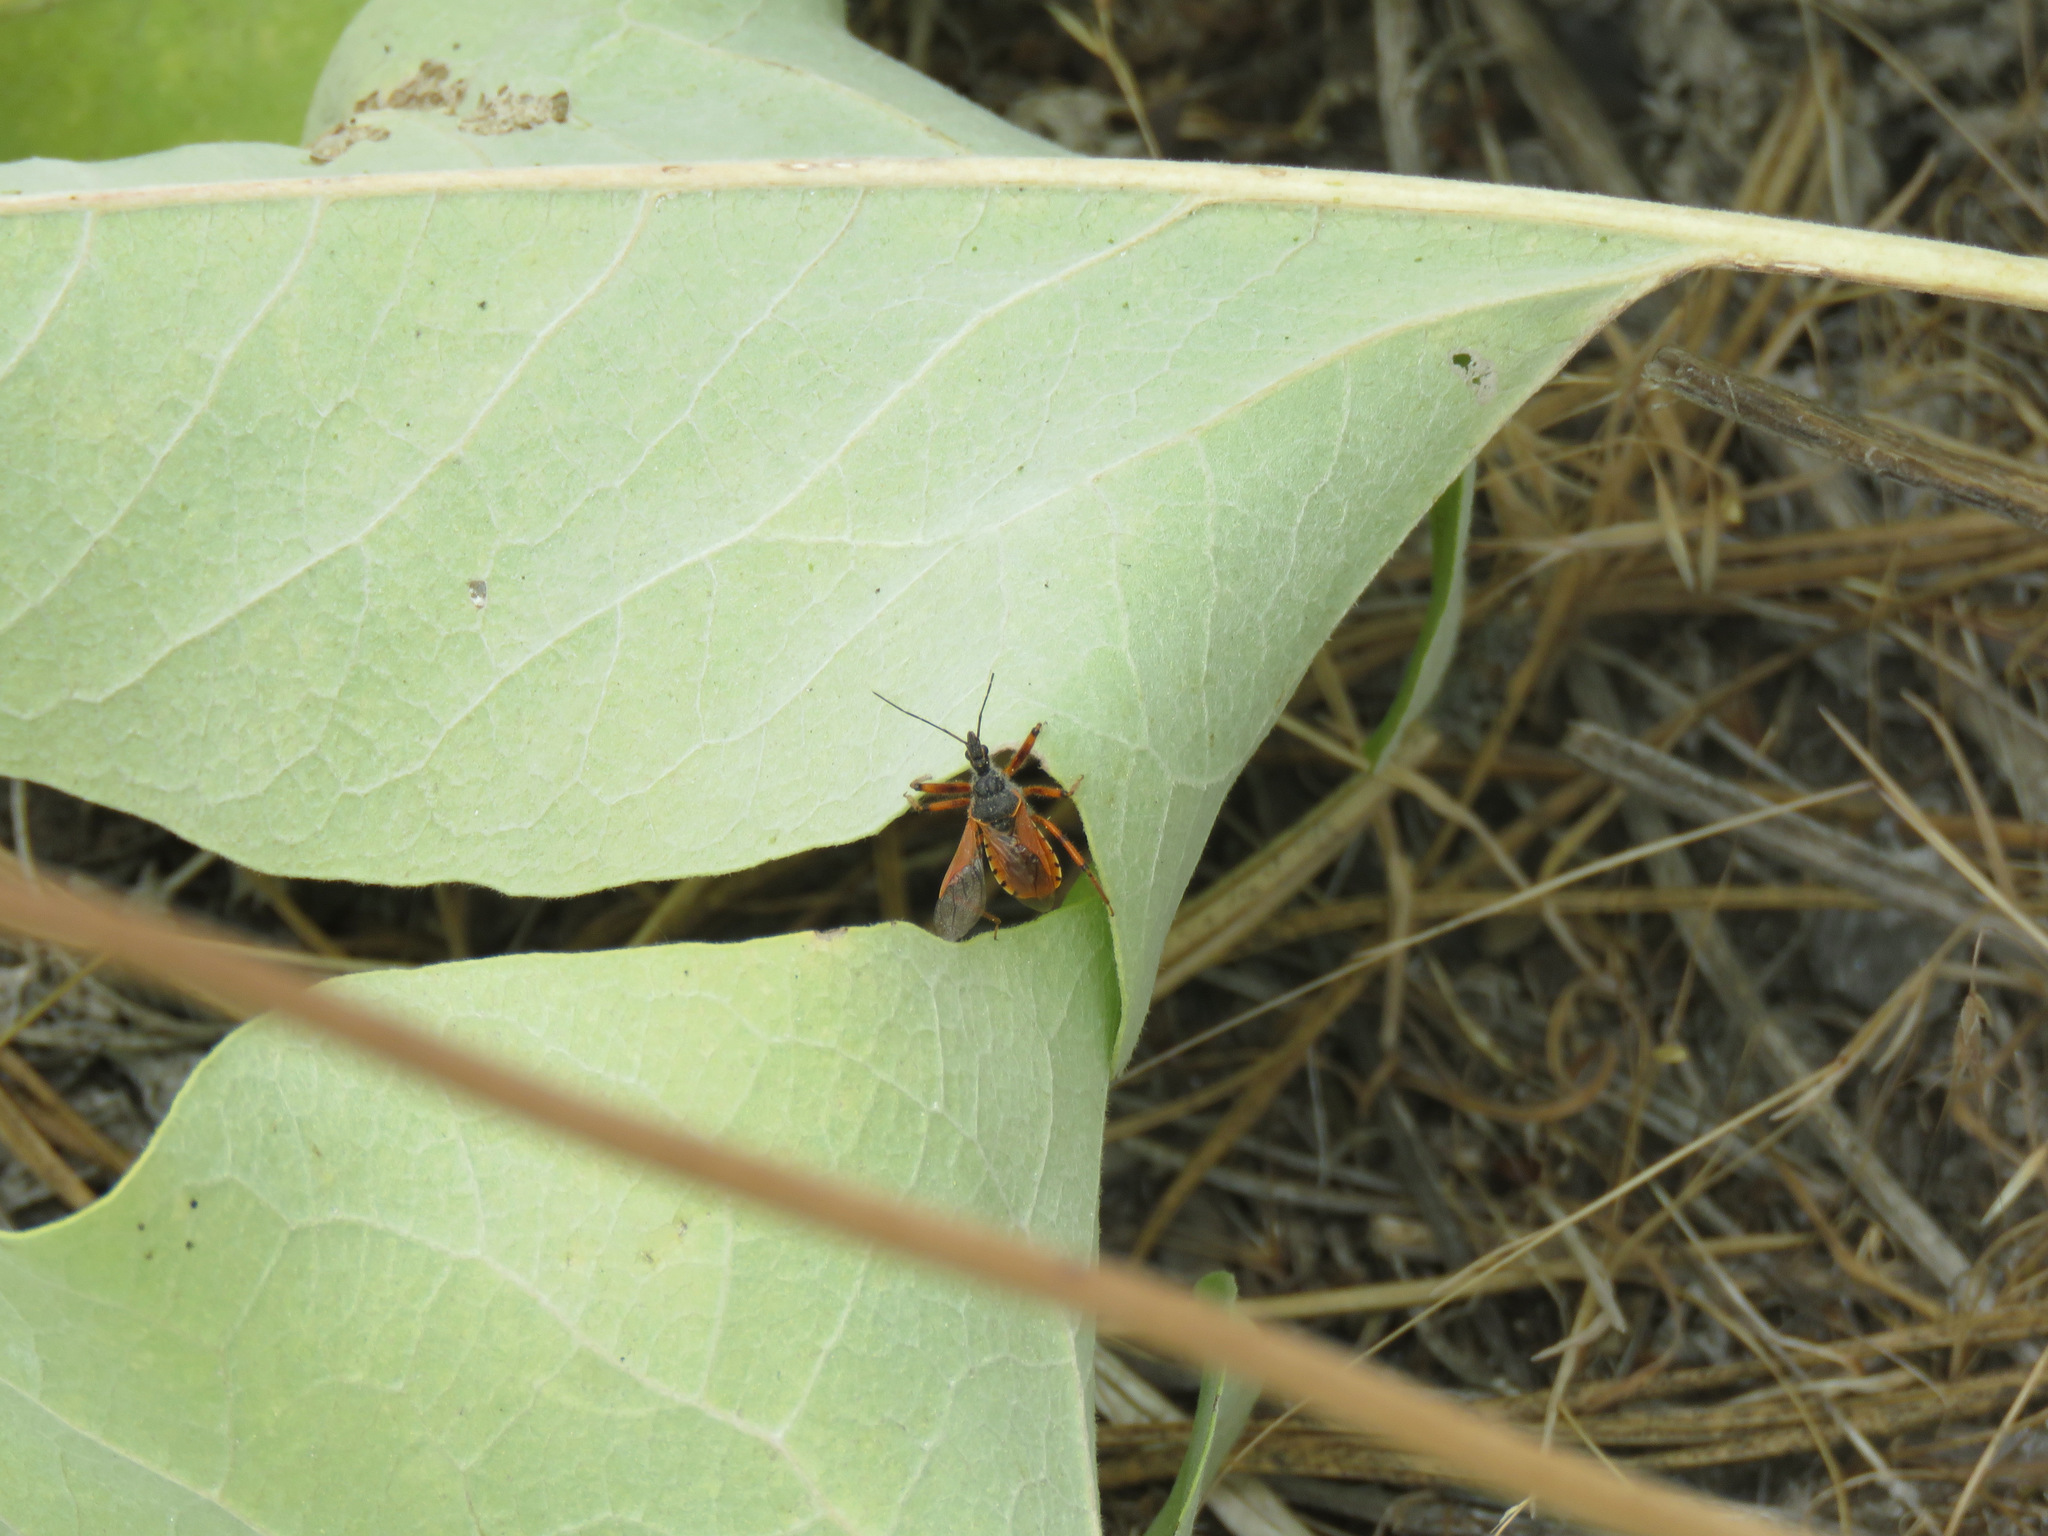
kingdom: Animalia
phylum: Arthropoda
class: Insecta
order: Hemiptera
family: Reduviidae
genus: Rhynocoris
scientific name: Rhynocoris ventralis
